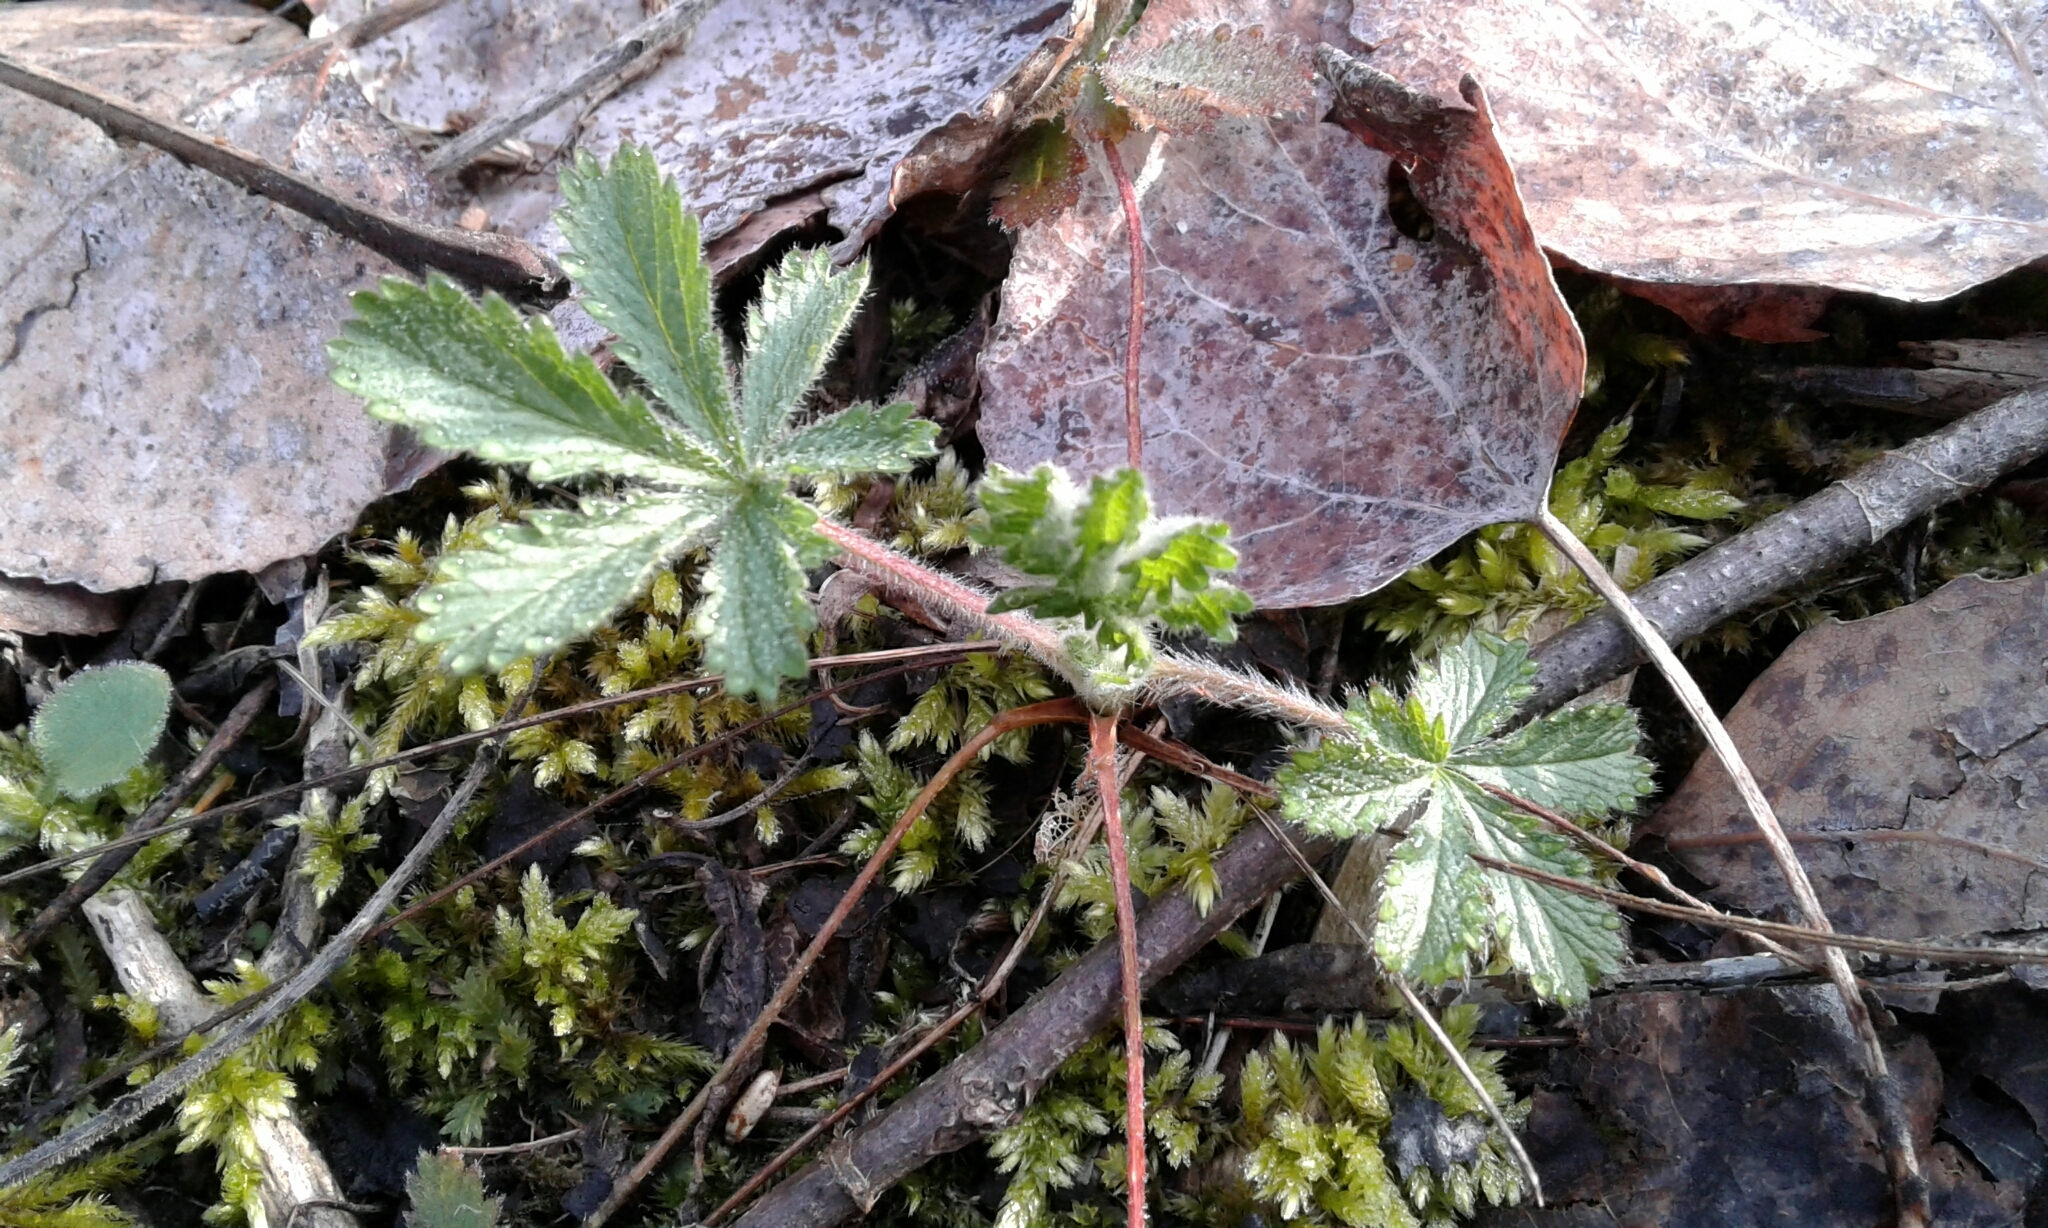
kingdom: Plantae
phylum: Tracheophyta
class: Magnoliopsida
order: Rosales
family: Rosaceae
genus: Potentilla
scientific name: Potentilla recta
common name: Sulphur cinquefoil
